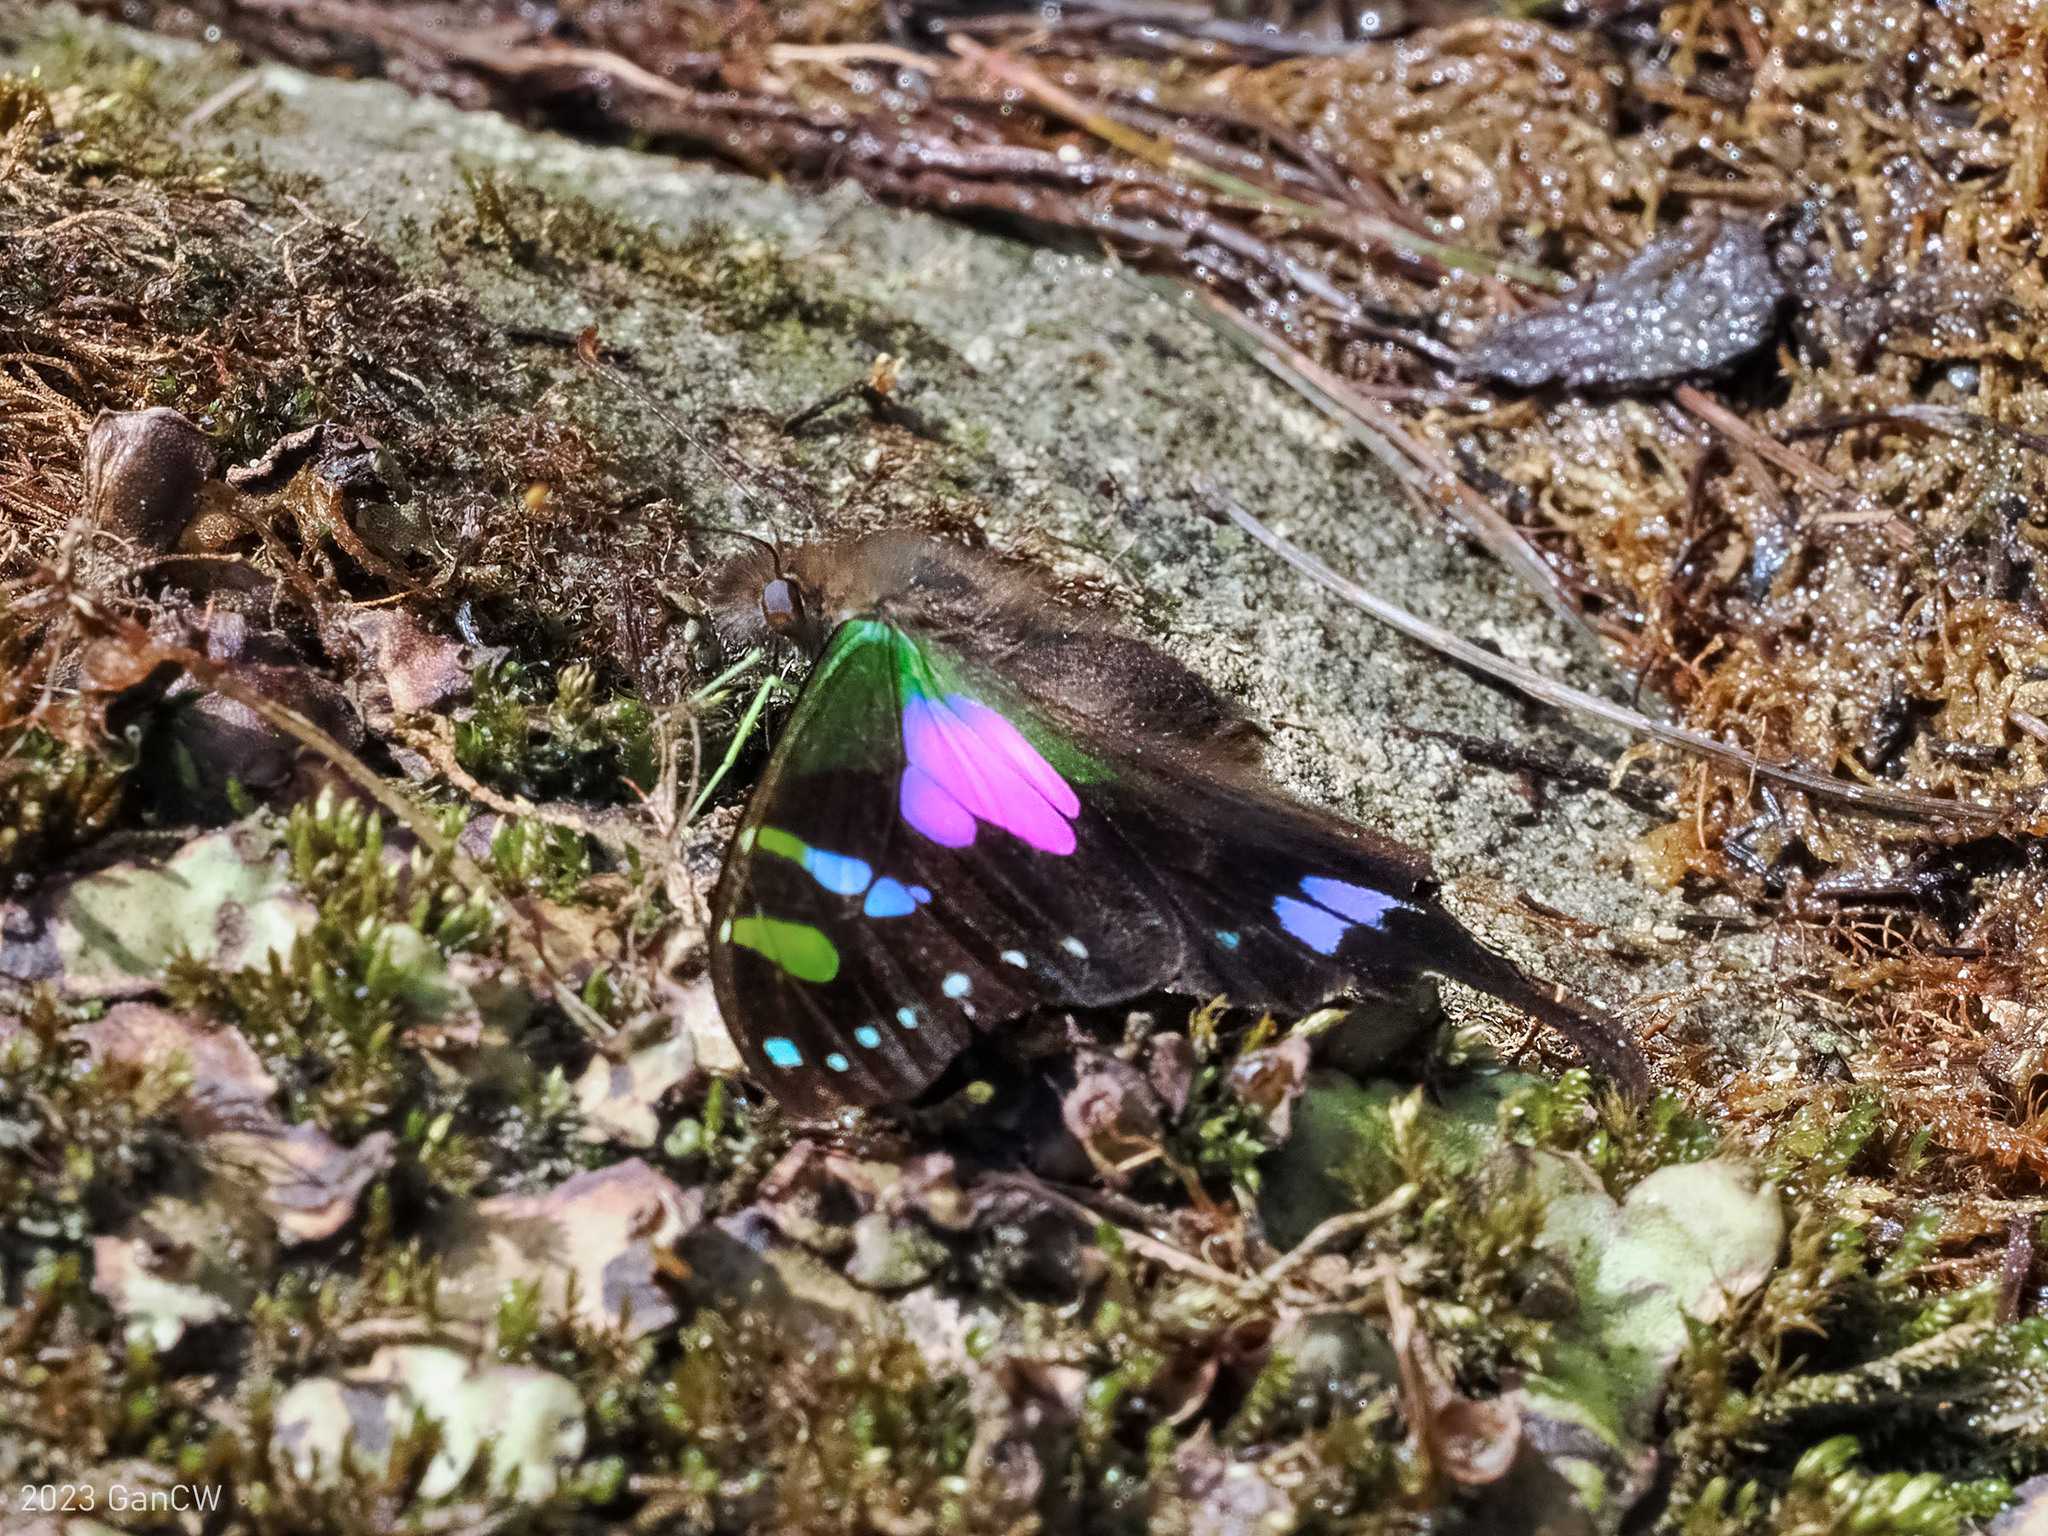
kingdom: Animalia
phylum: Arthropoda
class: Insecta
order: Lepidoptera
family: Papilionidae
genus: Graphium
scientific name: Graphium weiskei
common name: Purple spotted swallowtail
